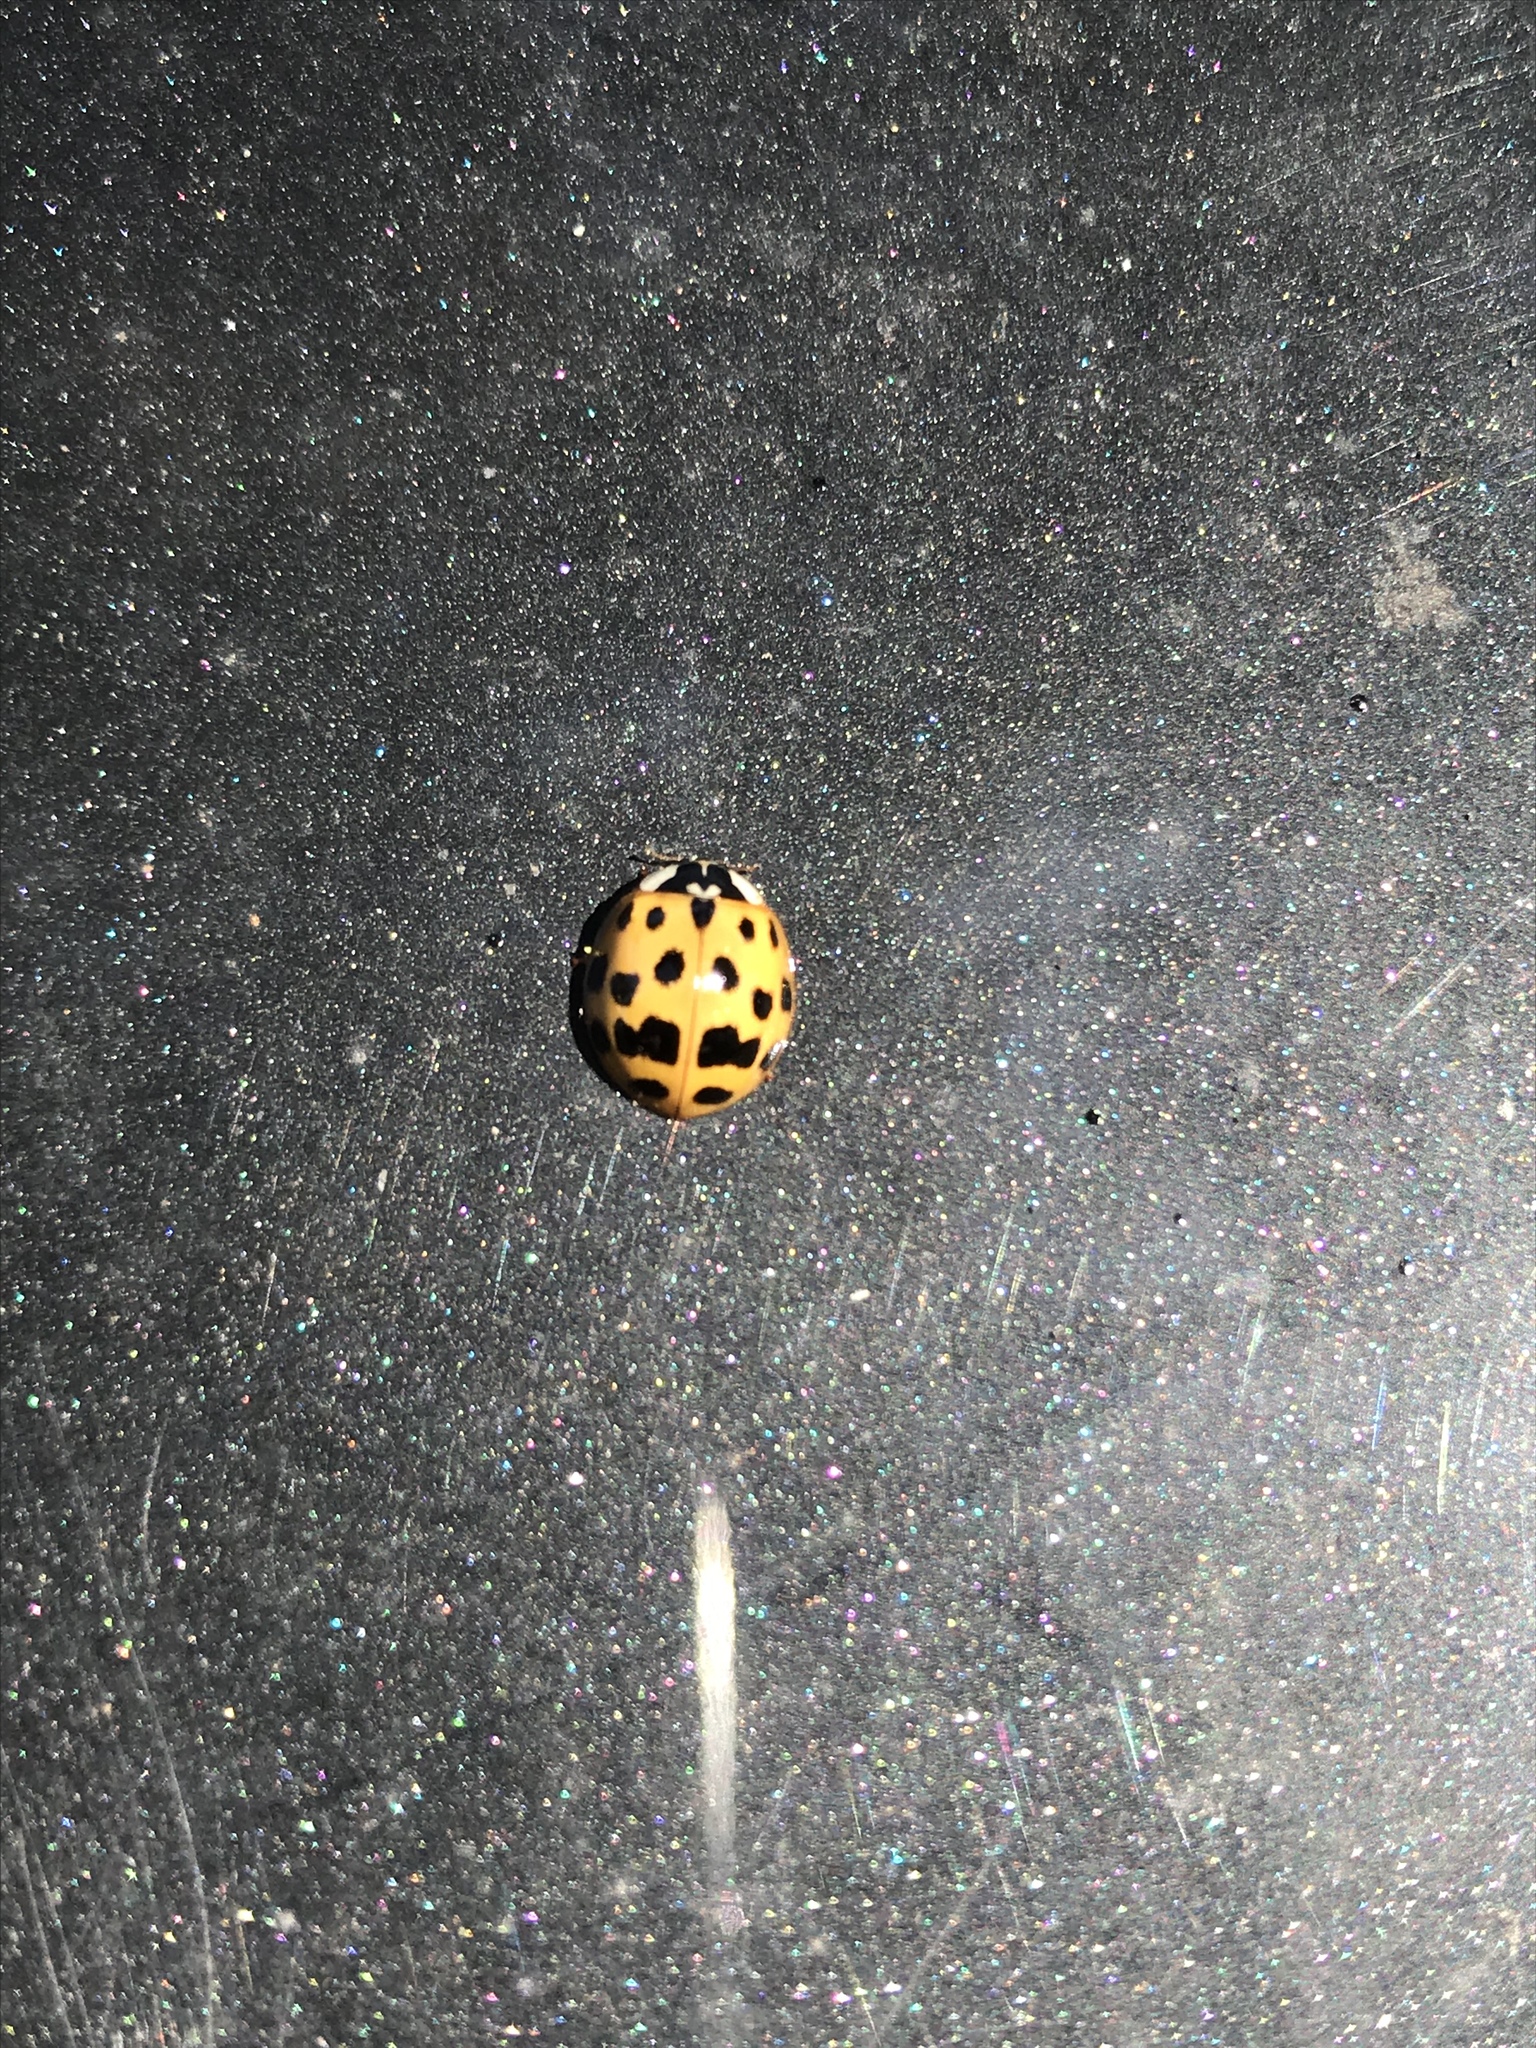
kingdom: Animalia
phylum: Arthropoda
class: Insecta
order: Coleoptera
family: Coccinellidae
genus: Harmonia
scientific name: Harmonia axyridis
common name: Harlequin ladybird
